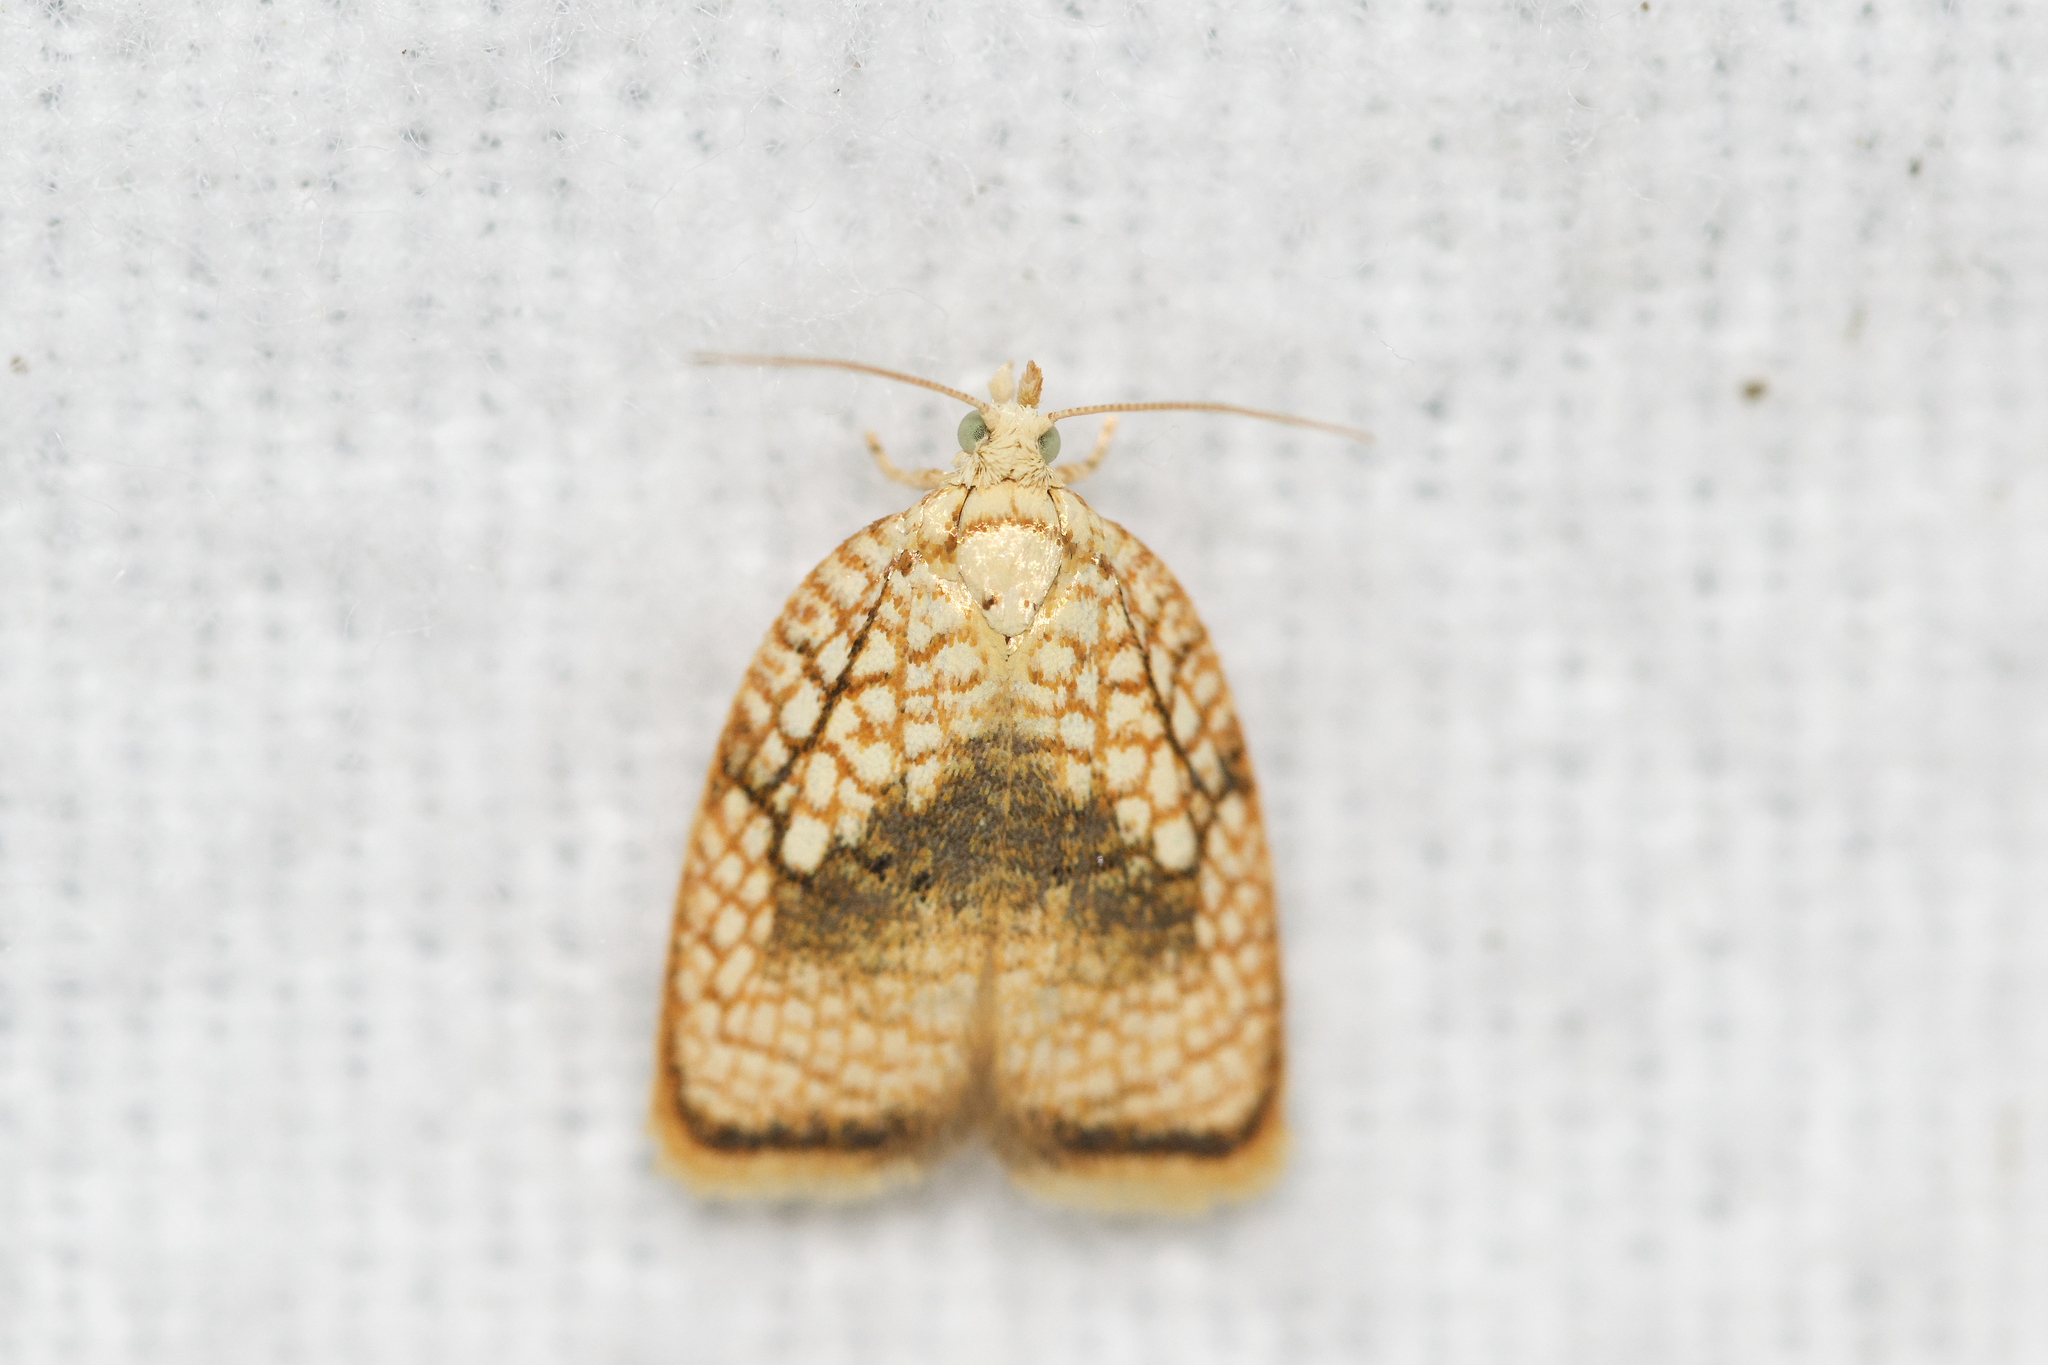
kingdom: Animalia
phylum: Arthropoda
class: Insecta
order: Lepidoptera
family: Tortricidae
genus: Acleris
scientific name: Acleris forsskaleana
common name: Maple button
